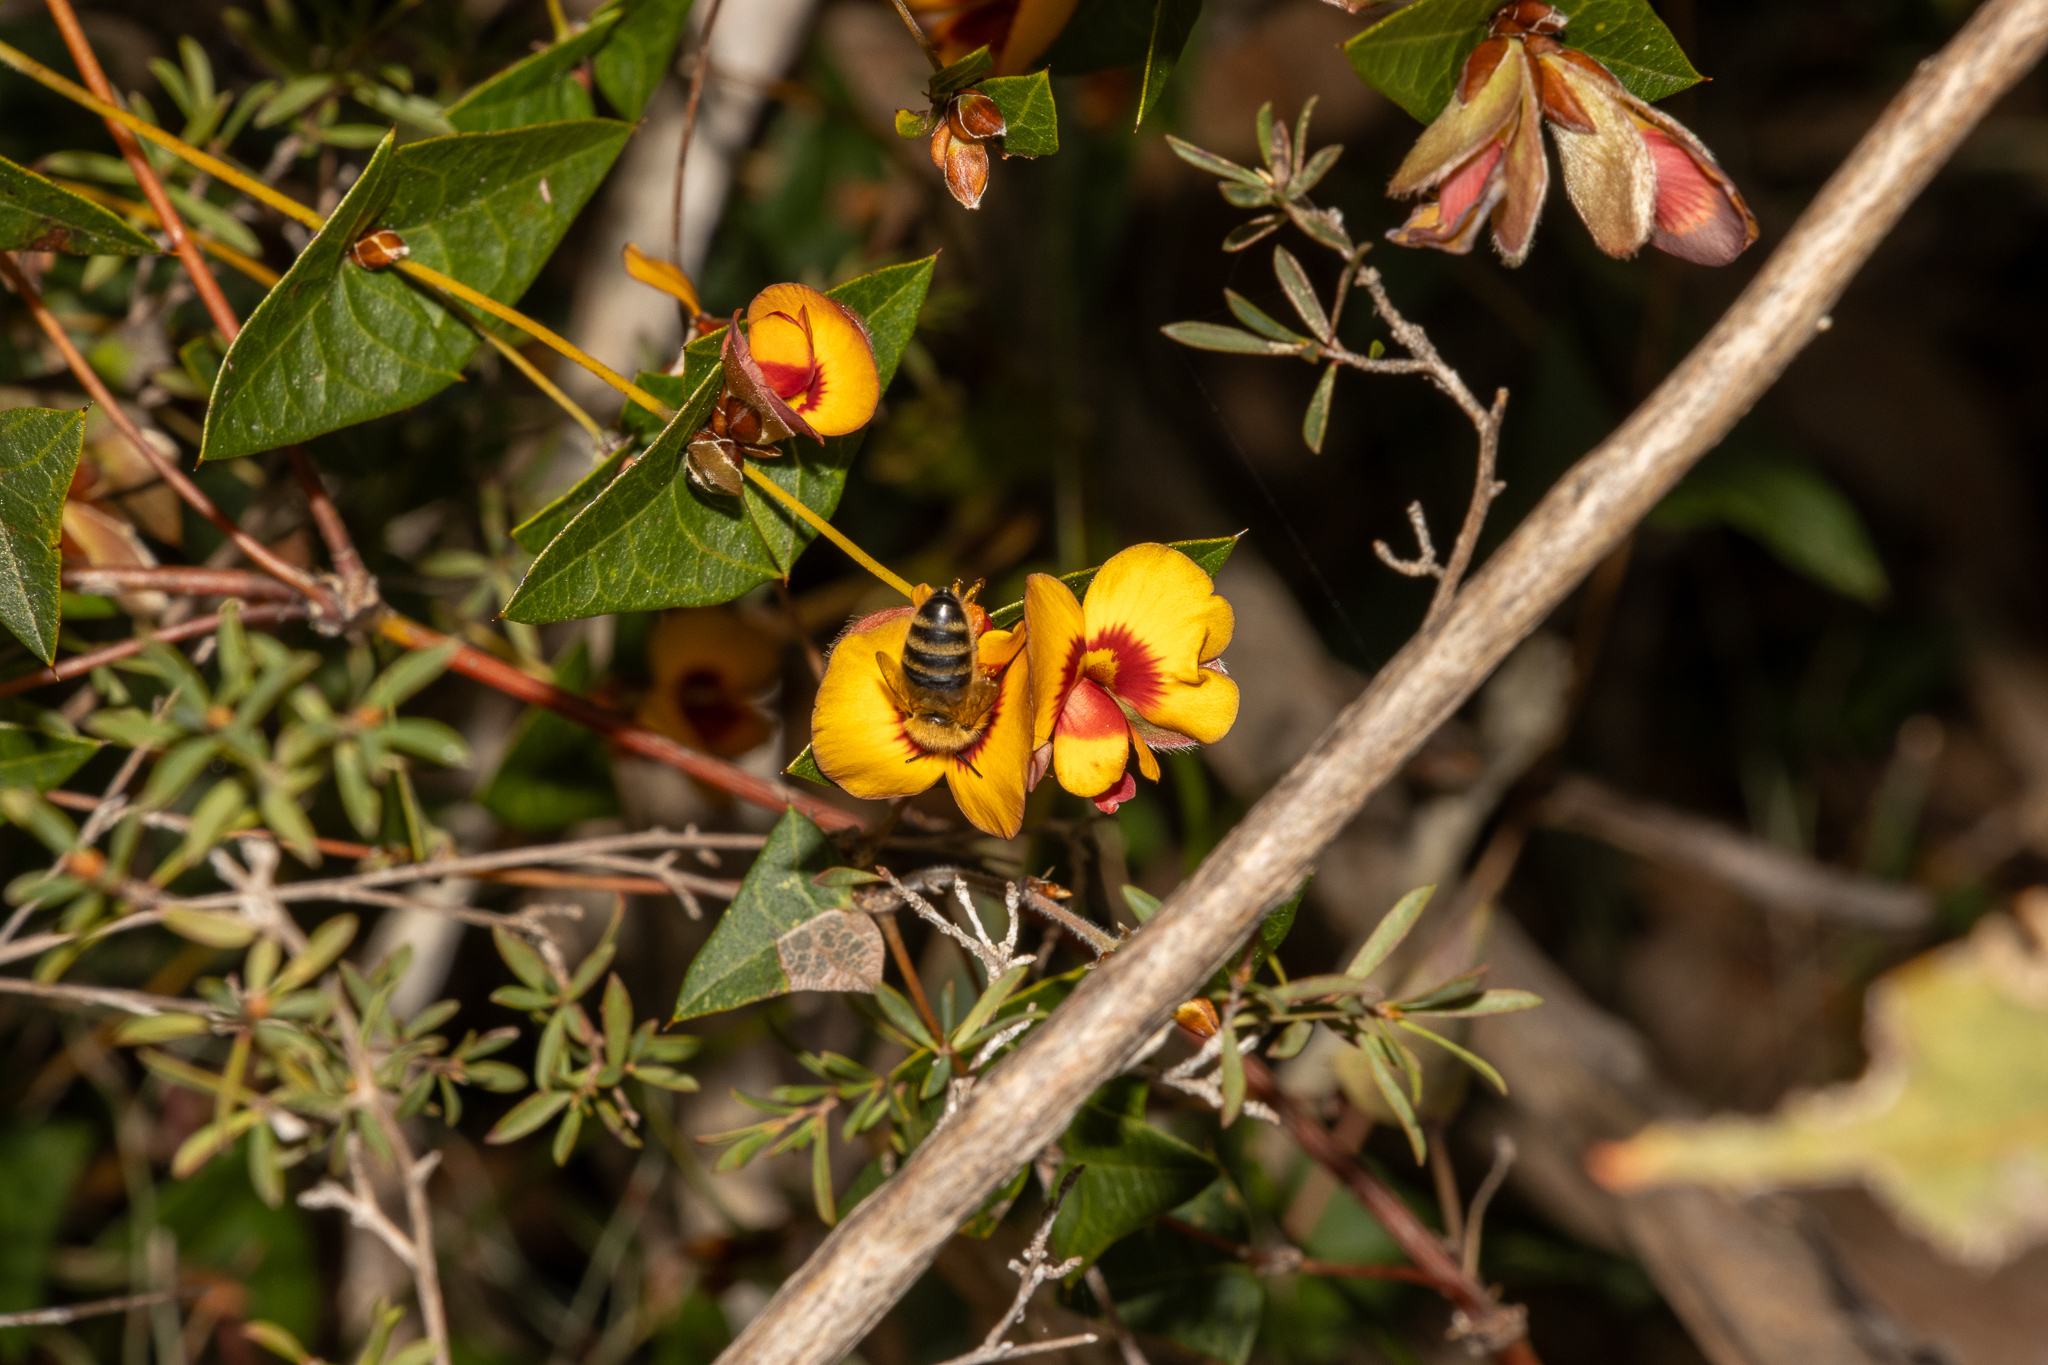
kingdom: Plantae
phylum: Tracheophyta
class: Magnoliopsida
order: Fabales
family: Fabaceae
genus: Platylobium
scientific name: Platylobium obtusangulum
